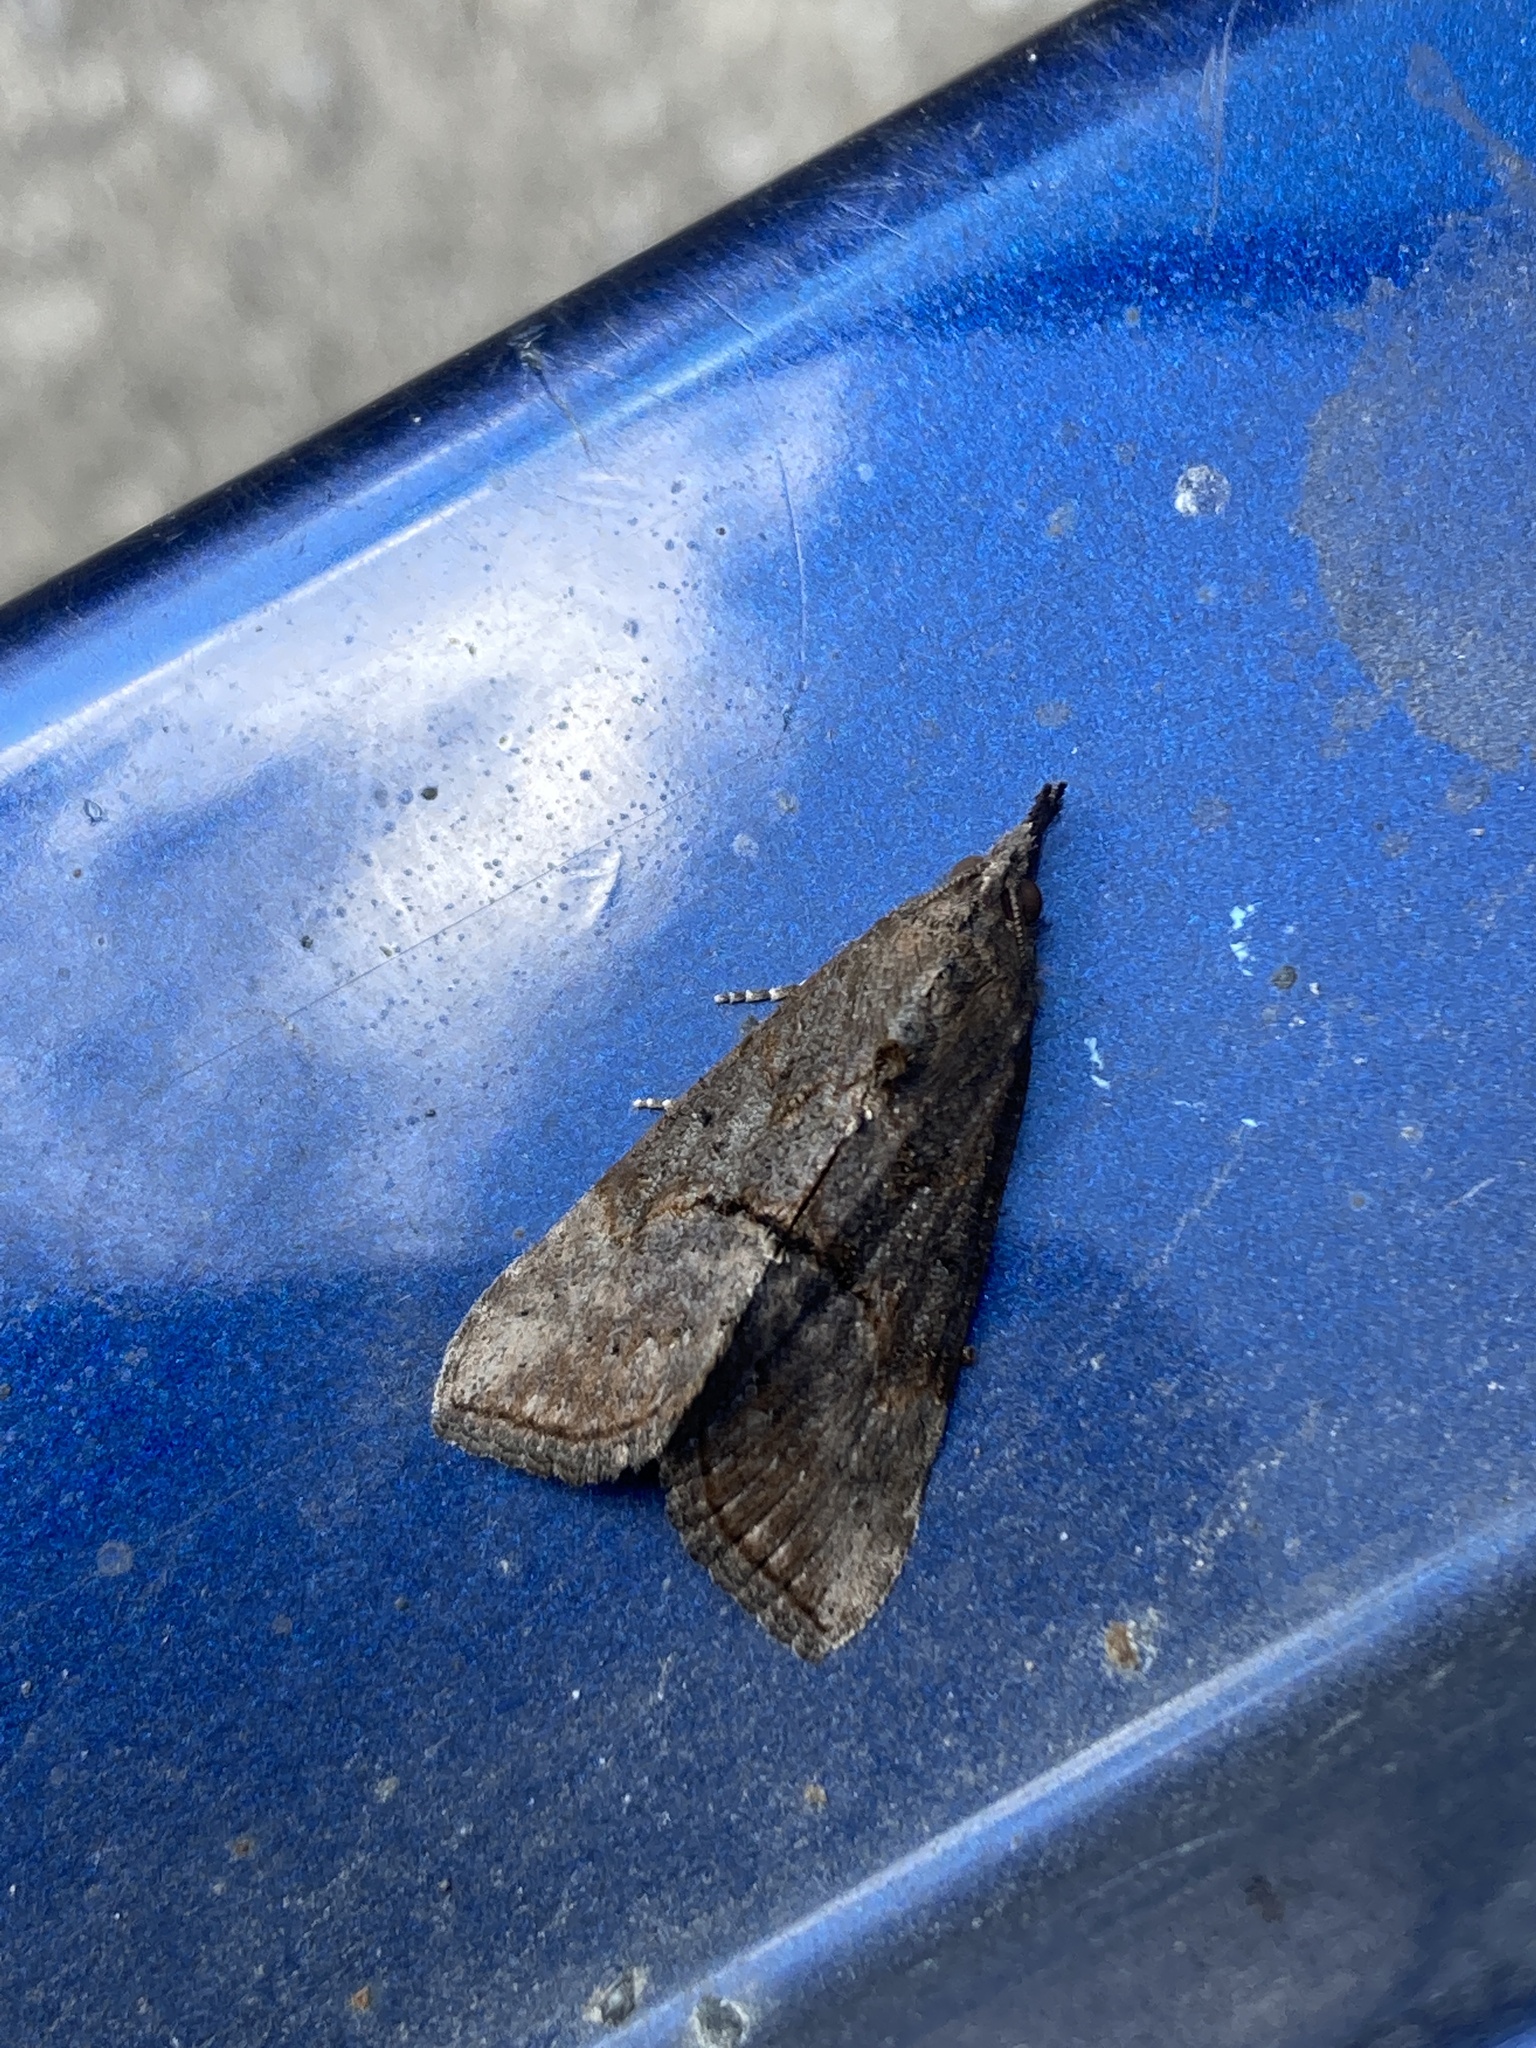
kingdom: Animalia
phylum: Arthropoda
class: Insecta
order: Lepidoptera
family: Erebidae
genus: Hypena
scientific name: Hypena scabra
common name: Green cloverworm
